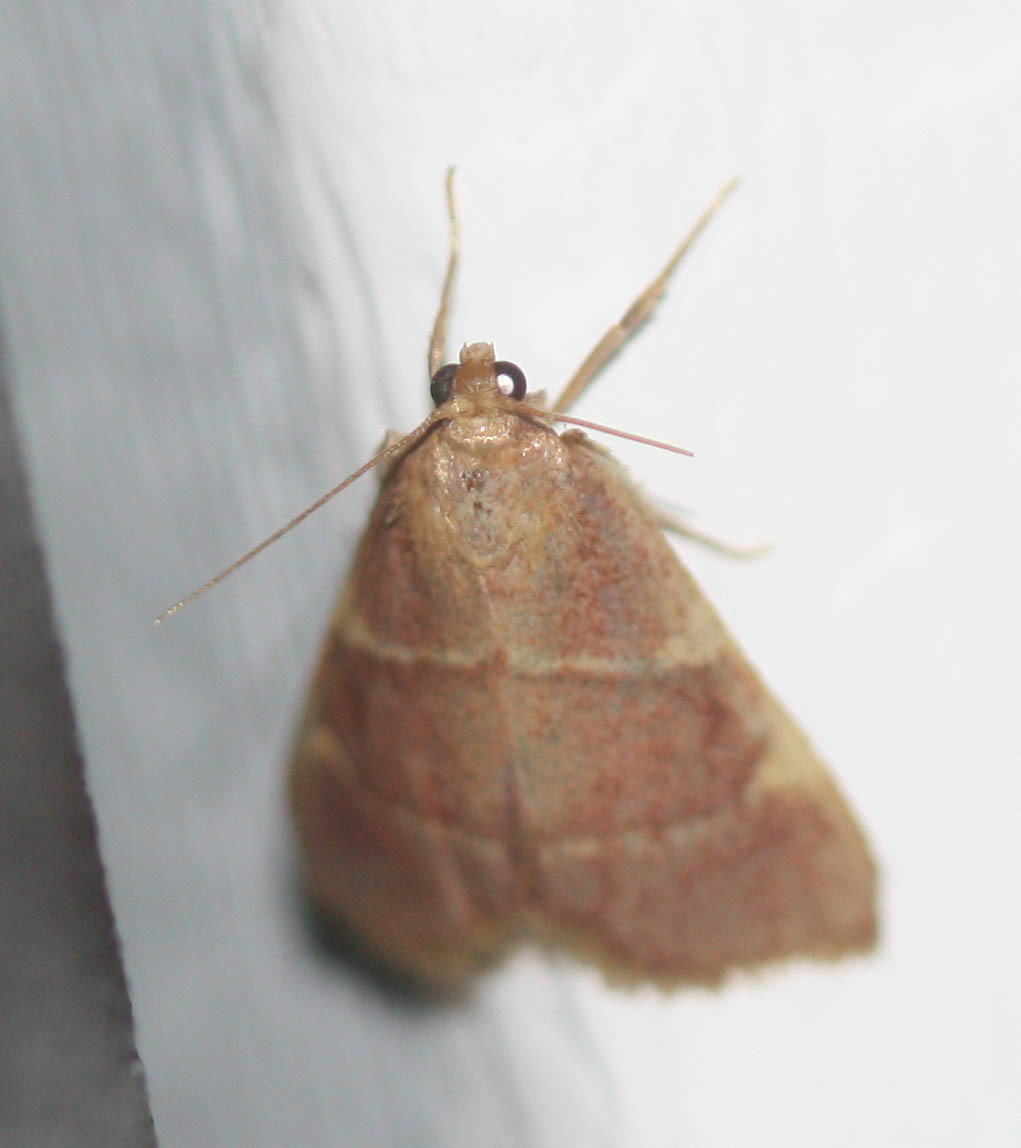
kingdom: Animalia
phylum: Arthropoda
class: Insecta
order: Lepidoptera
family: Pyralidae
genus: Hypsopygia
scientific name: Hypsopygia olinalis
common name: Yellow-fringed dolichomia moth
